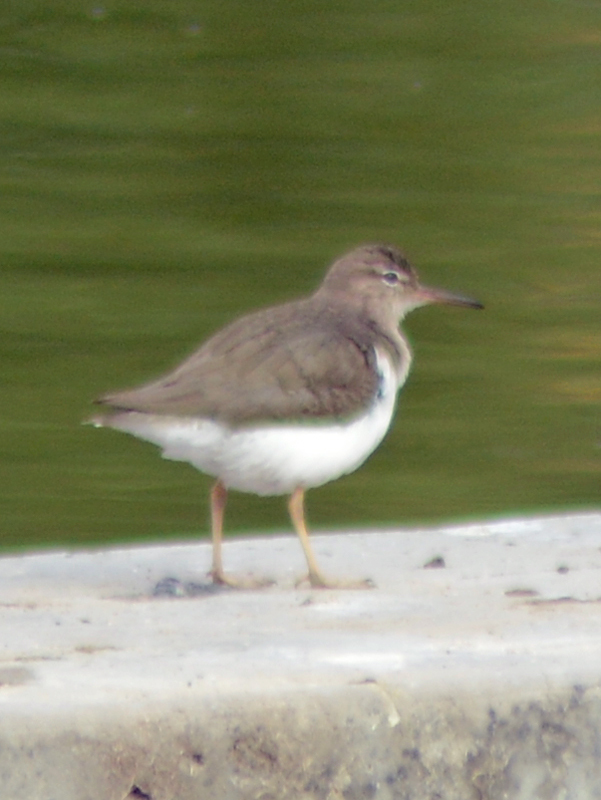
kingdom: Animalia
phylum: Chordata
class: Aves
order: Charadriiformes
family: Scolopacidae
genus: Actitis
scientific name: Actitis macularius
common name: Spotted sandpiper
